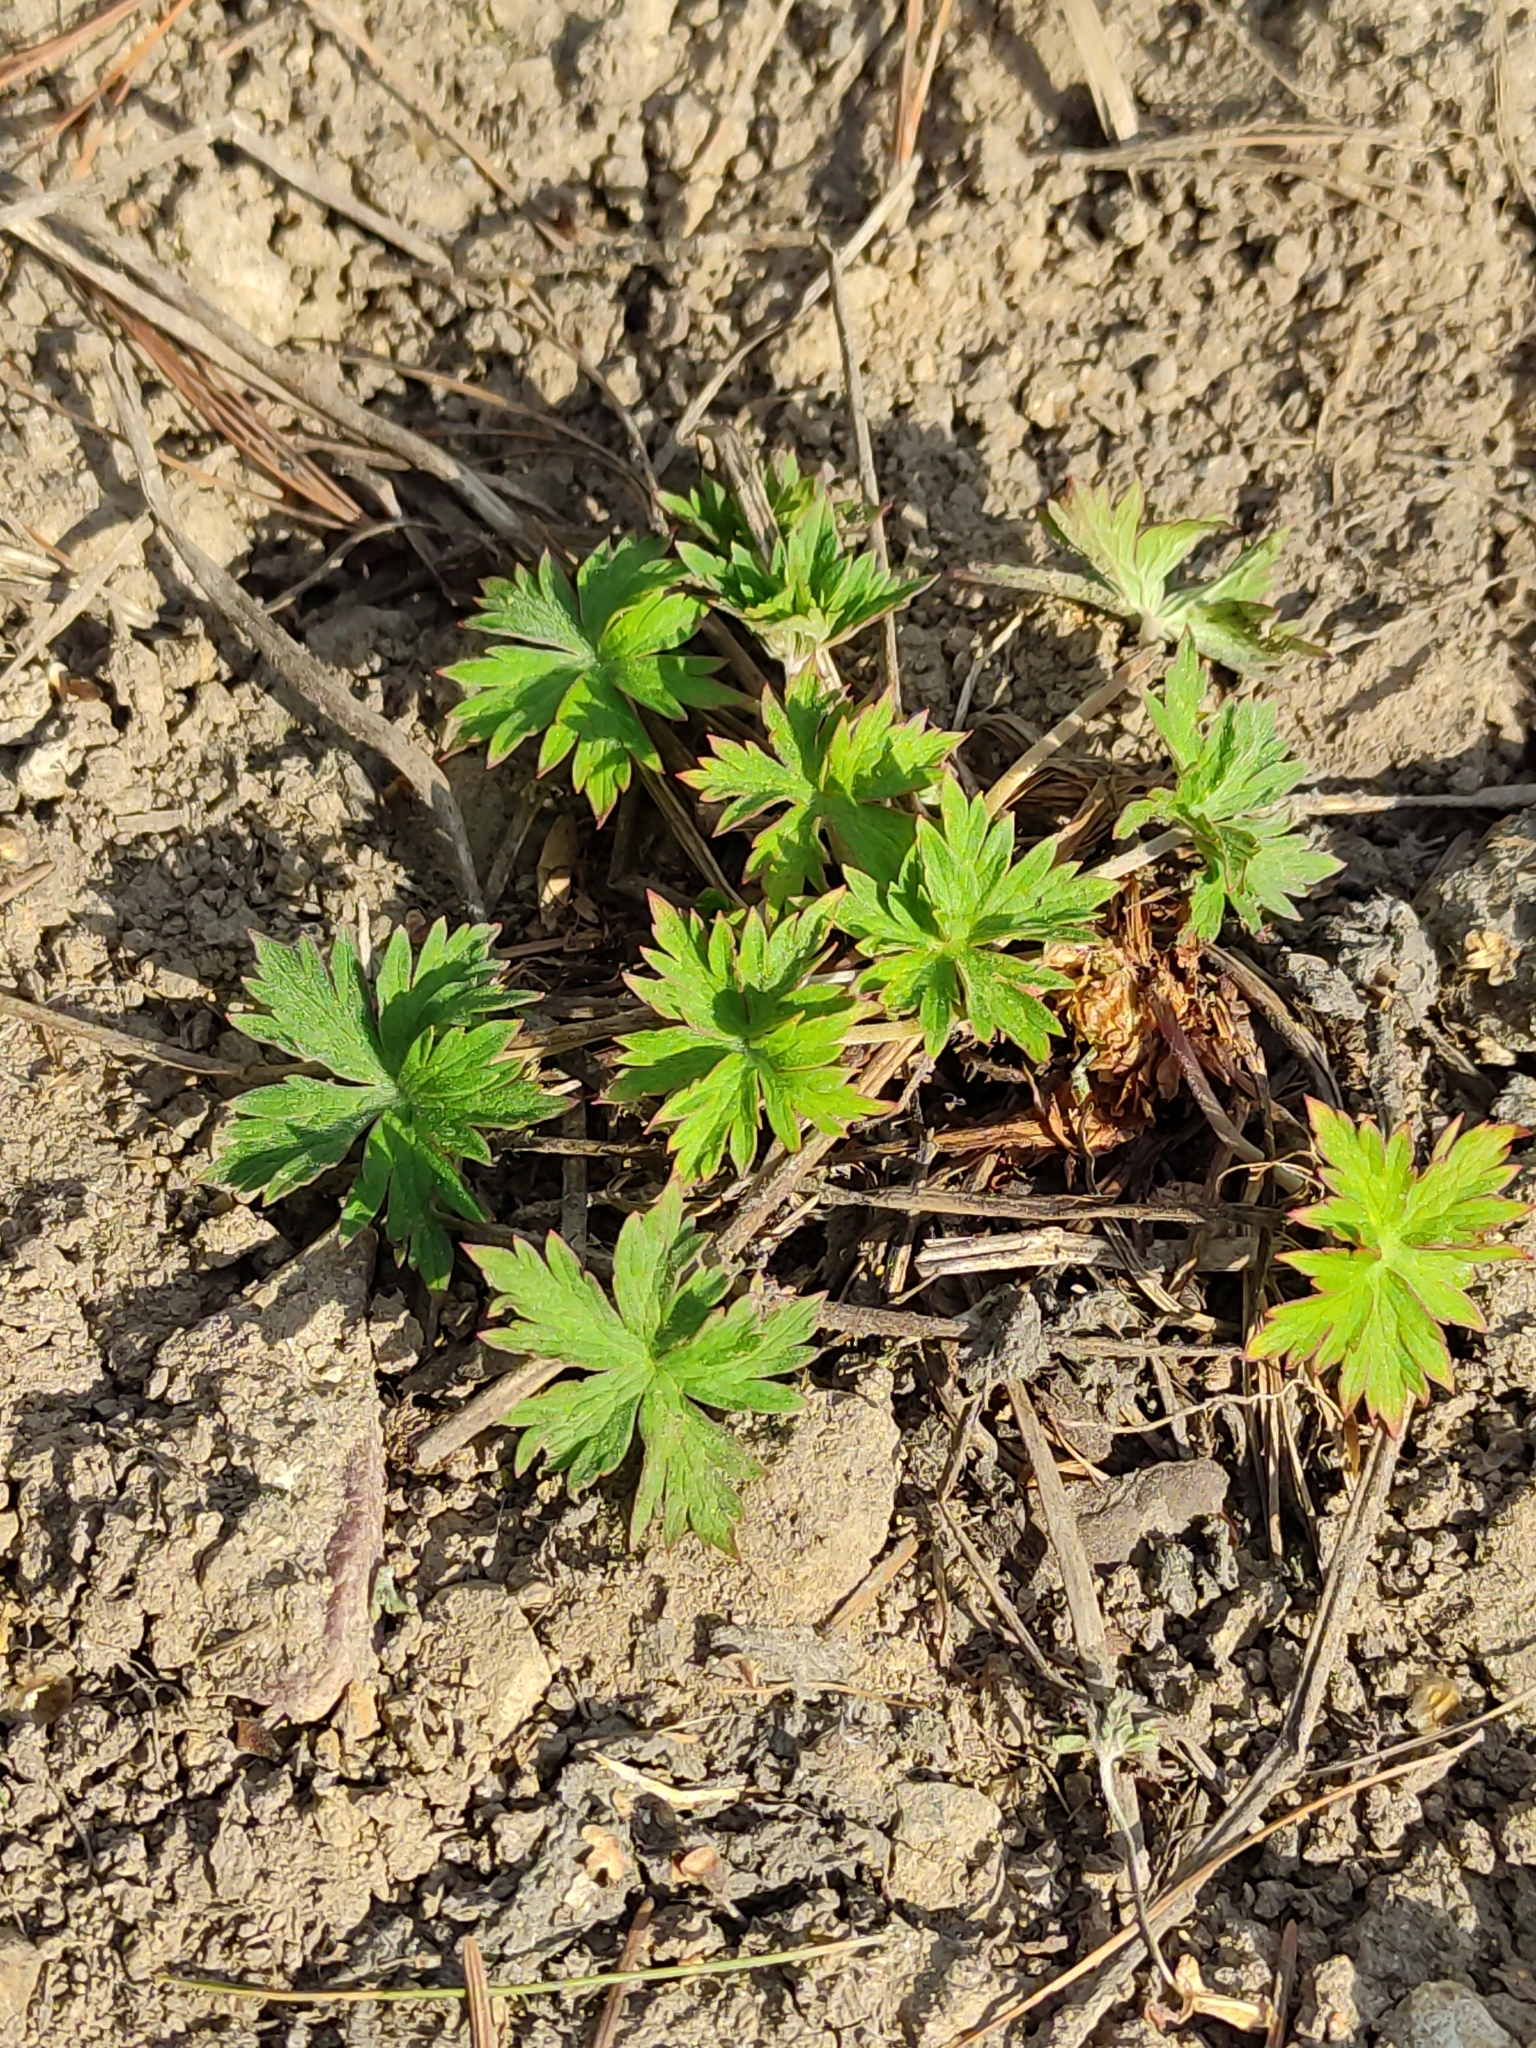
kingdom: Plantae
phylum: Tracheophyta
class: Magnoliopsida
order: Geraniales
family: Geraniaceae
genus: Geranium
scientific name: Geranium sibiricum
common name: Siberian crane's-bill
